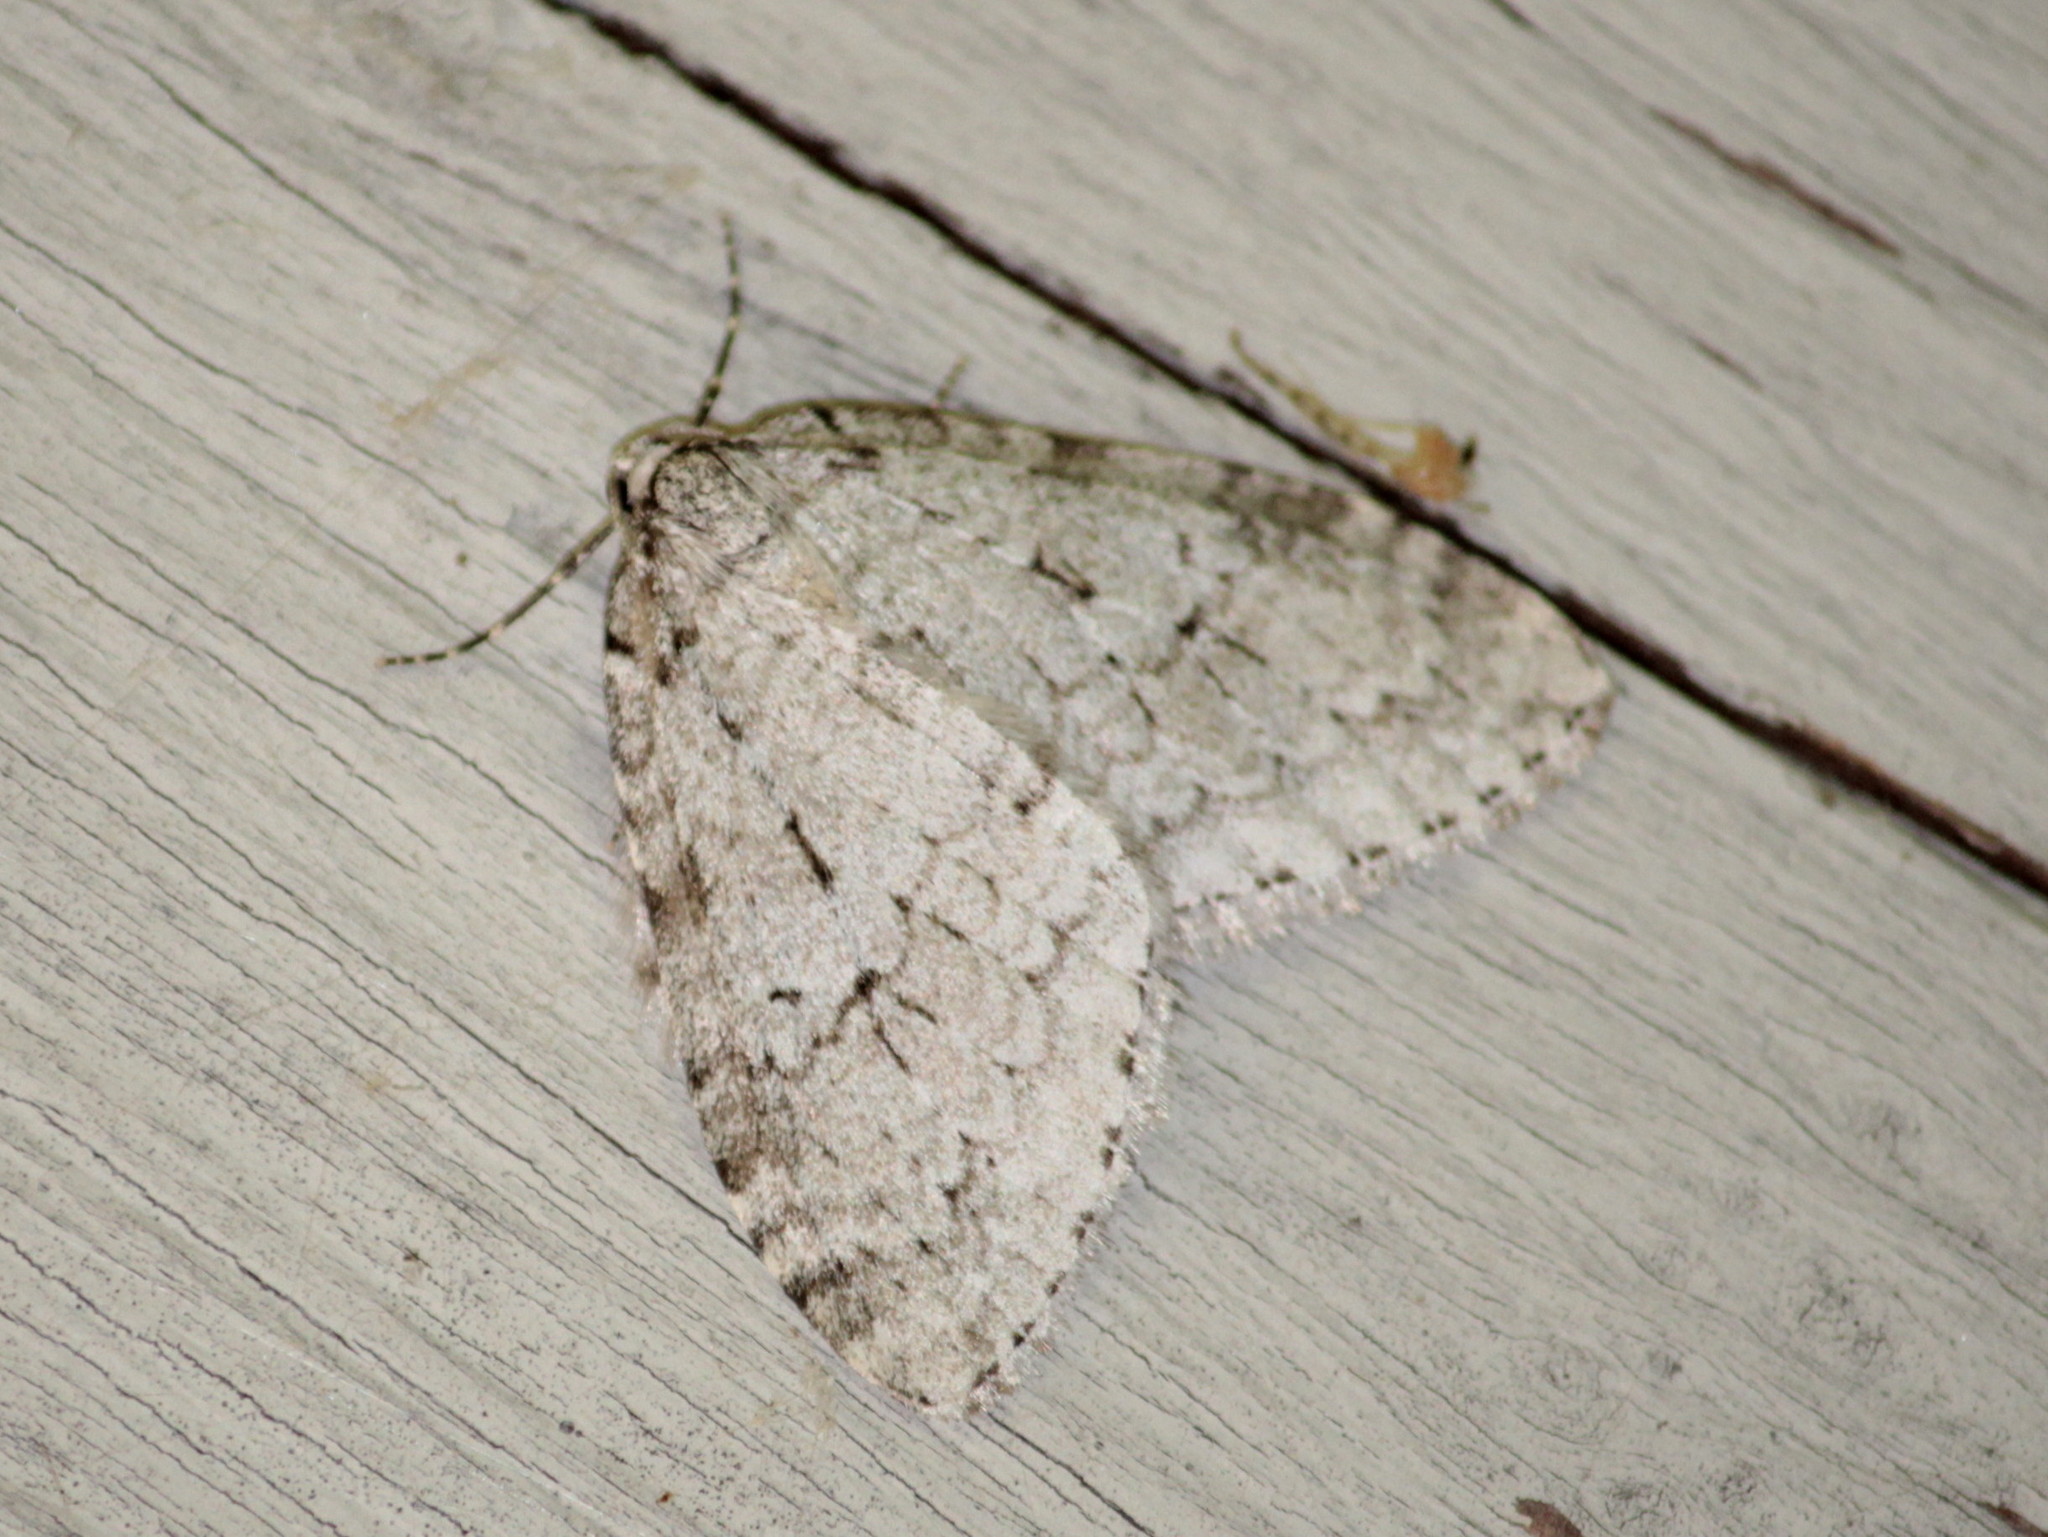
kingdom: Animalia
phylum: Arthropoda
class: Insecta
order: Lepidoptera
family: Geometridae
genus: Epirrita
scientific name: Epirrita autumnata
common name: Autumnal moth
